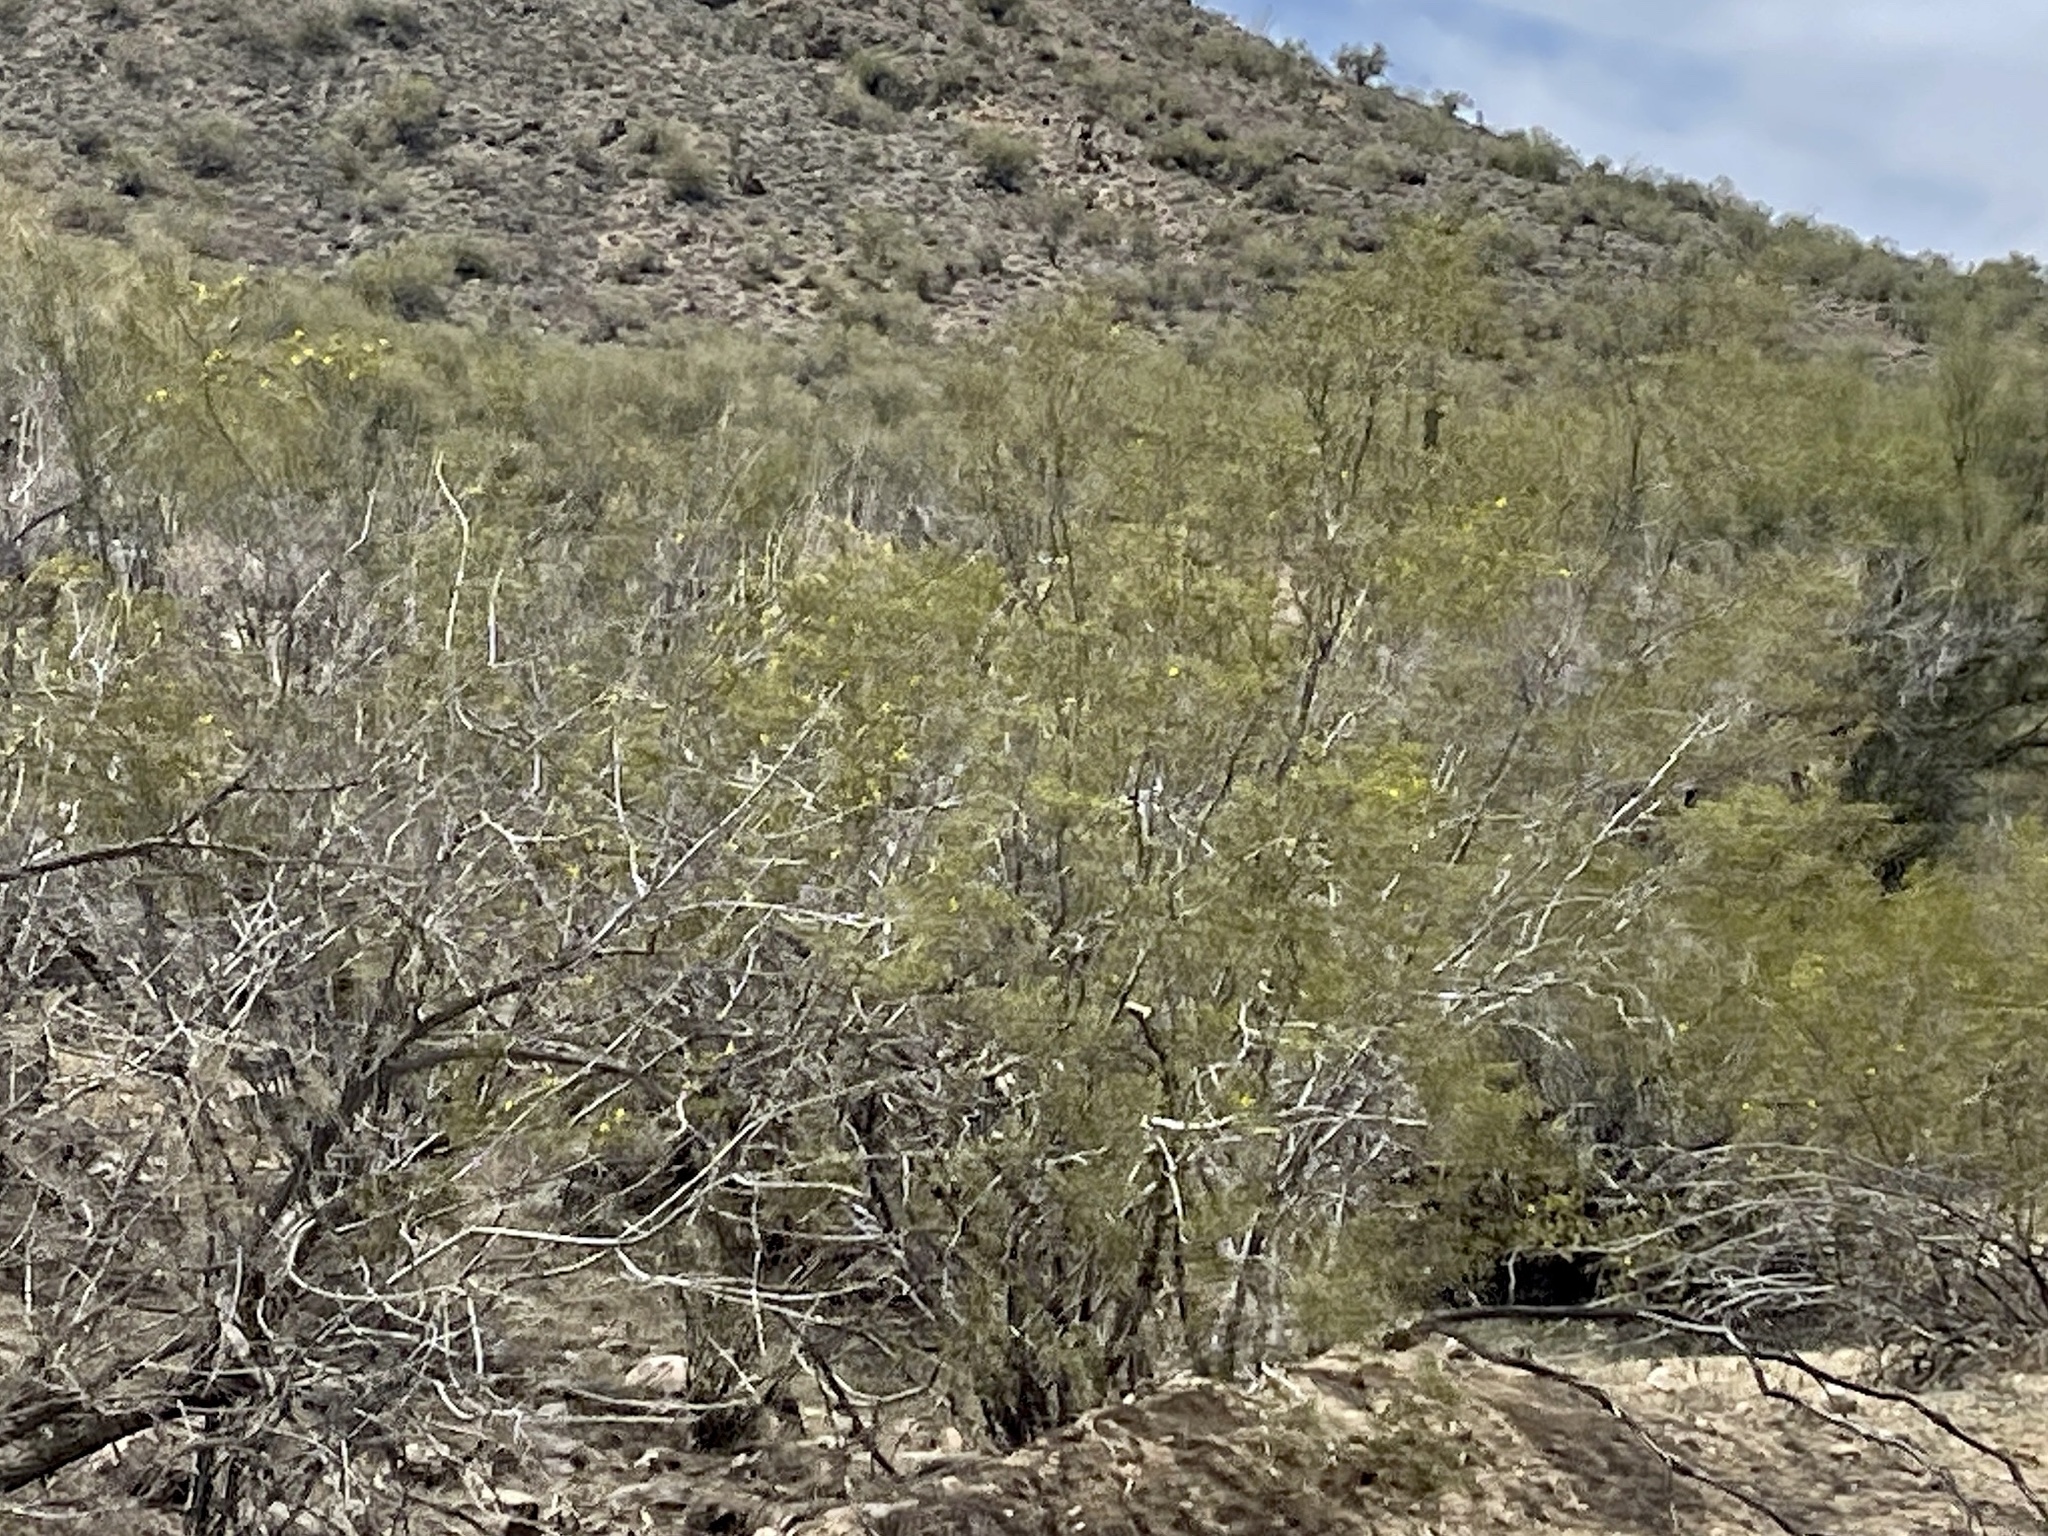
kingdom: Plantae
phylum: Tracheophyta
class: Magnoliopsida
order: Zygophyllales
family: Zygophyllaceae
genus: Larrea
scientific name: Larrea tridentata
